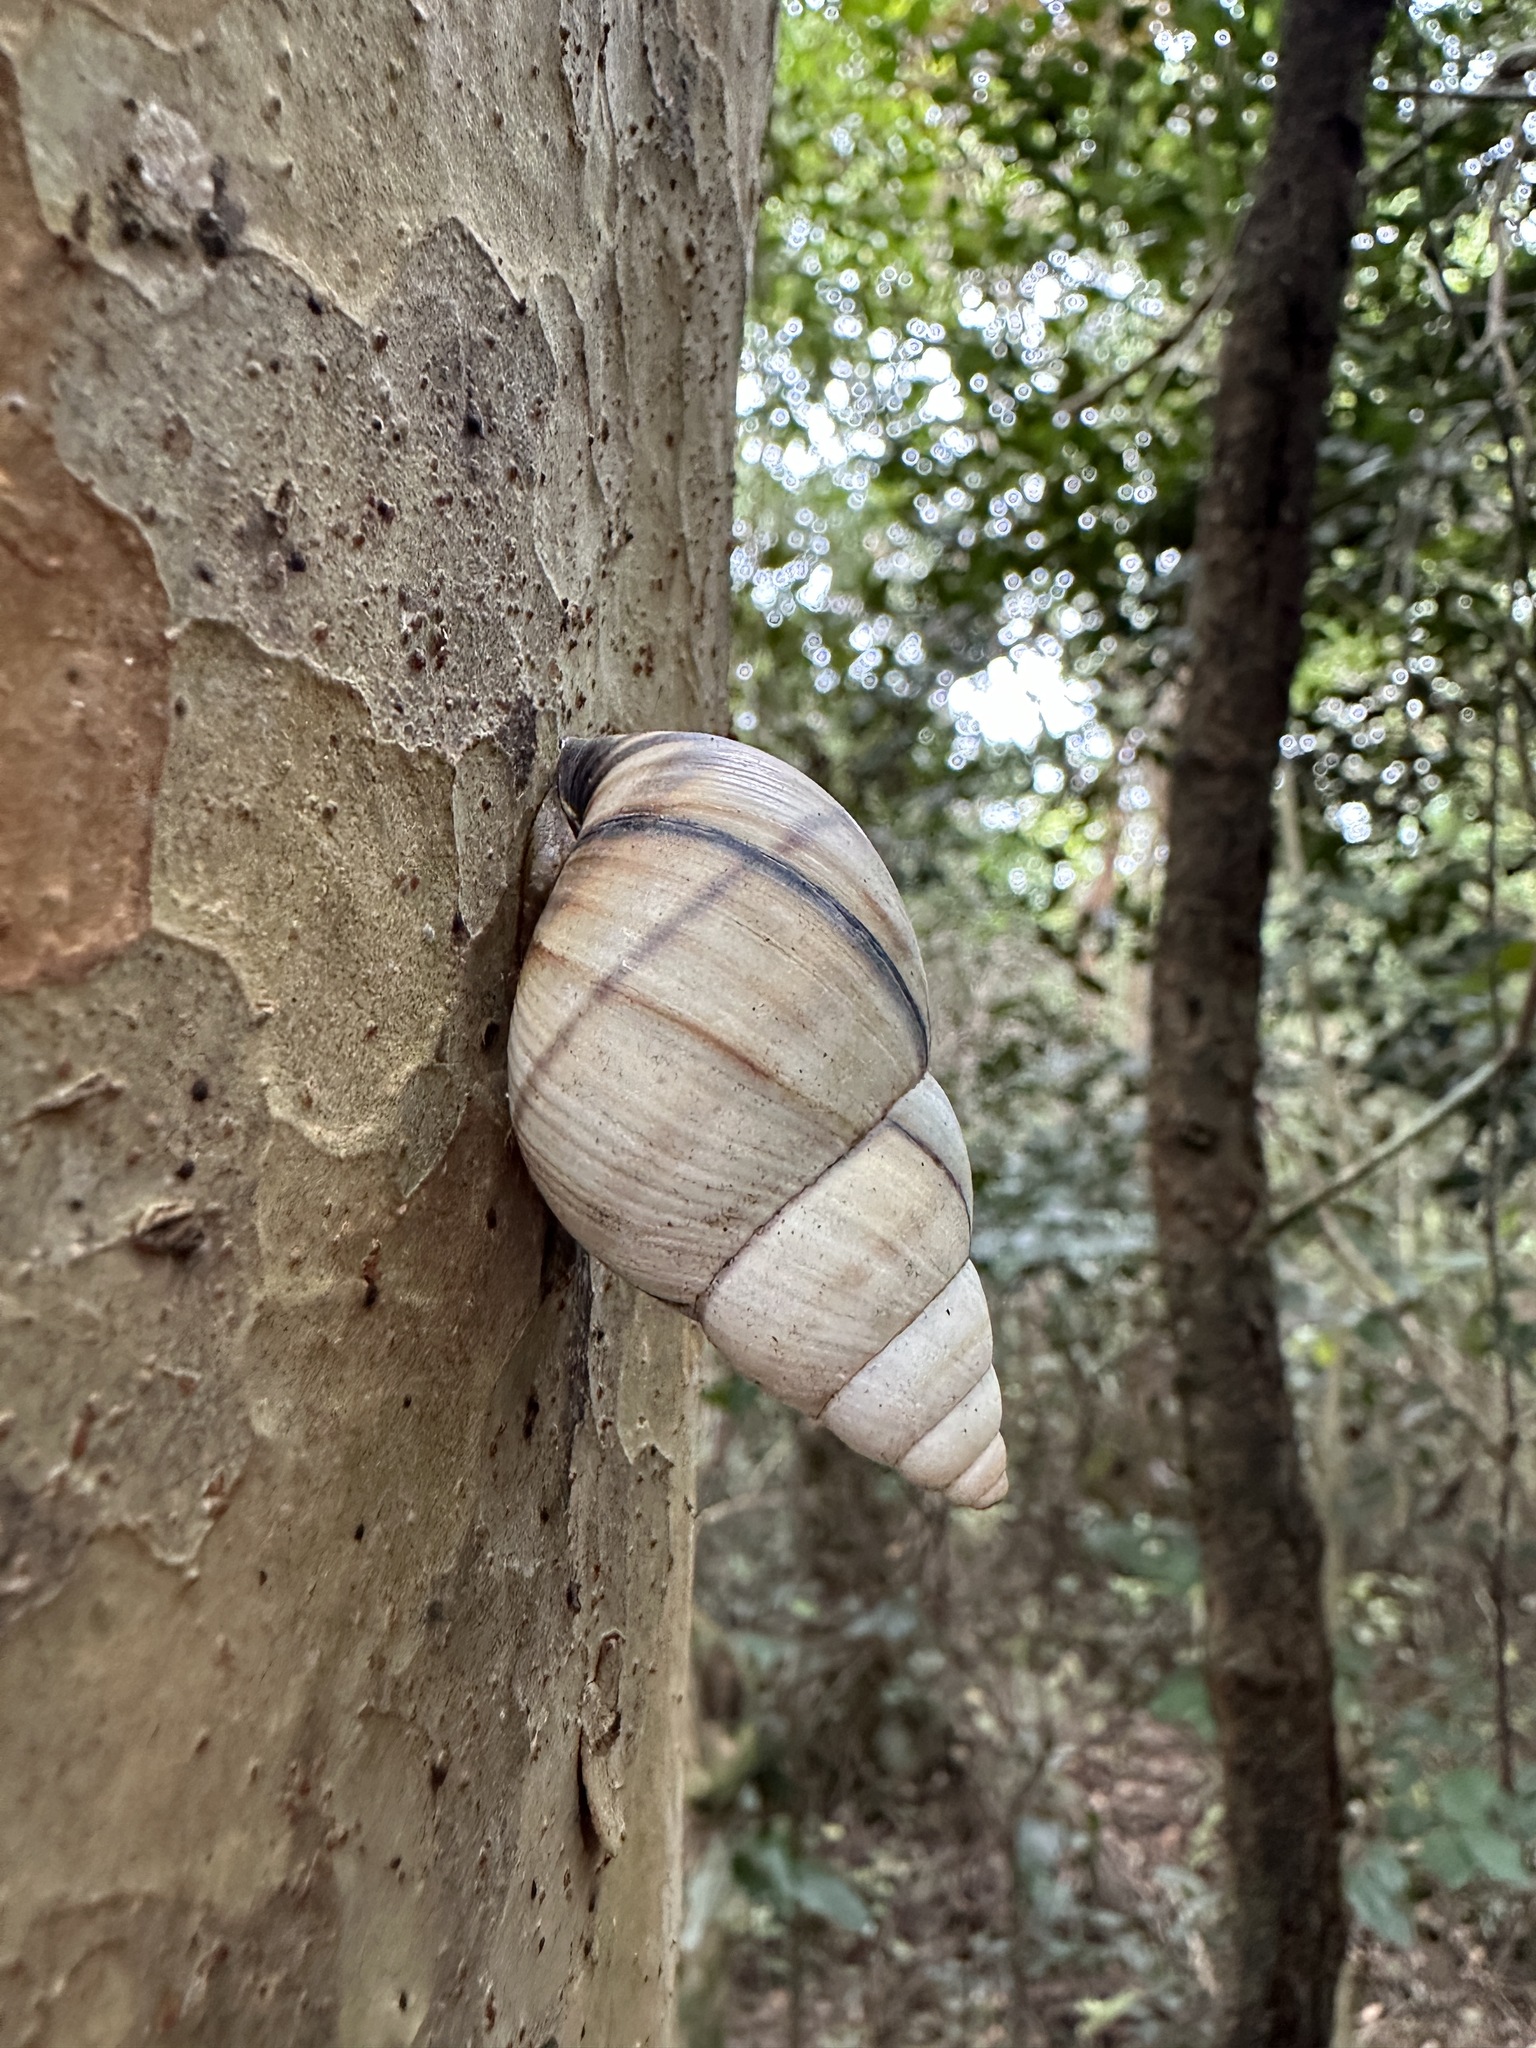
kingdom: Animalia
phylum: Mollusca
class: Gastropoda
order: Stylommatophora
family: Orthalicidae
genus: Orthalicus
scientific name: Orthalicus floridensis
